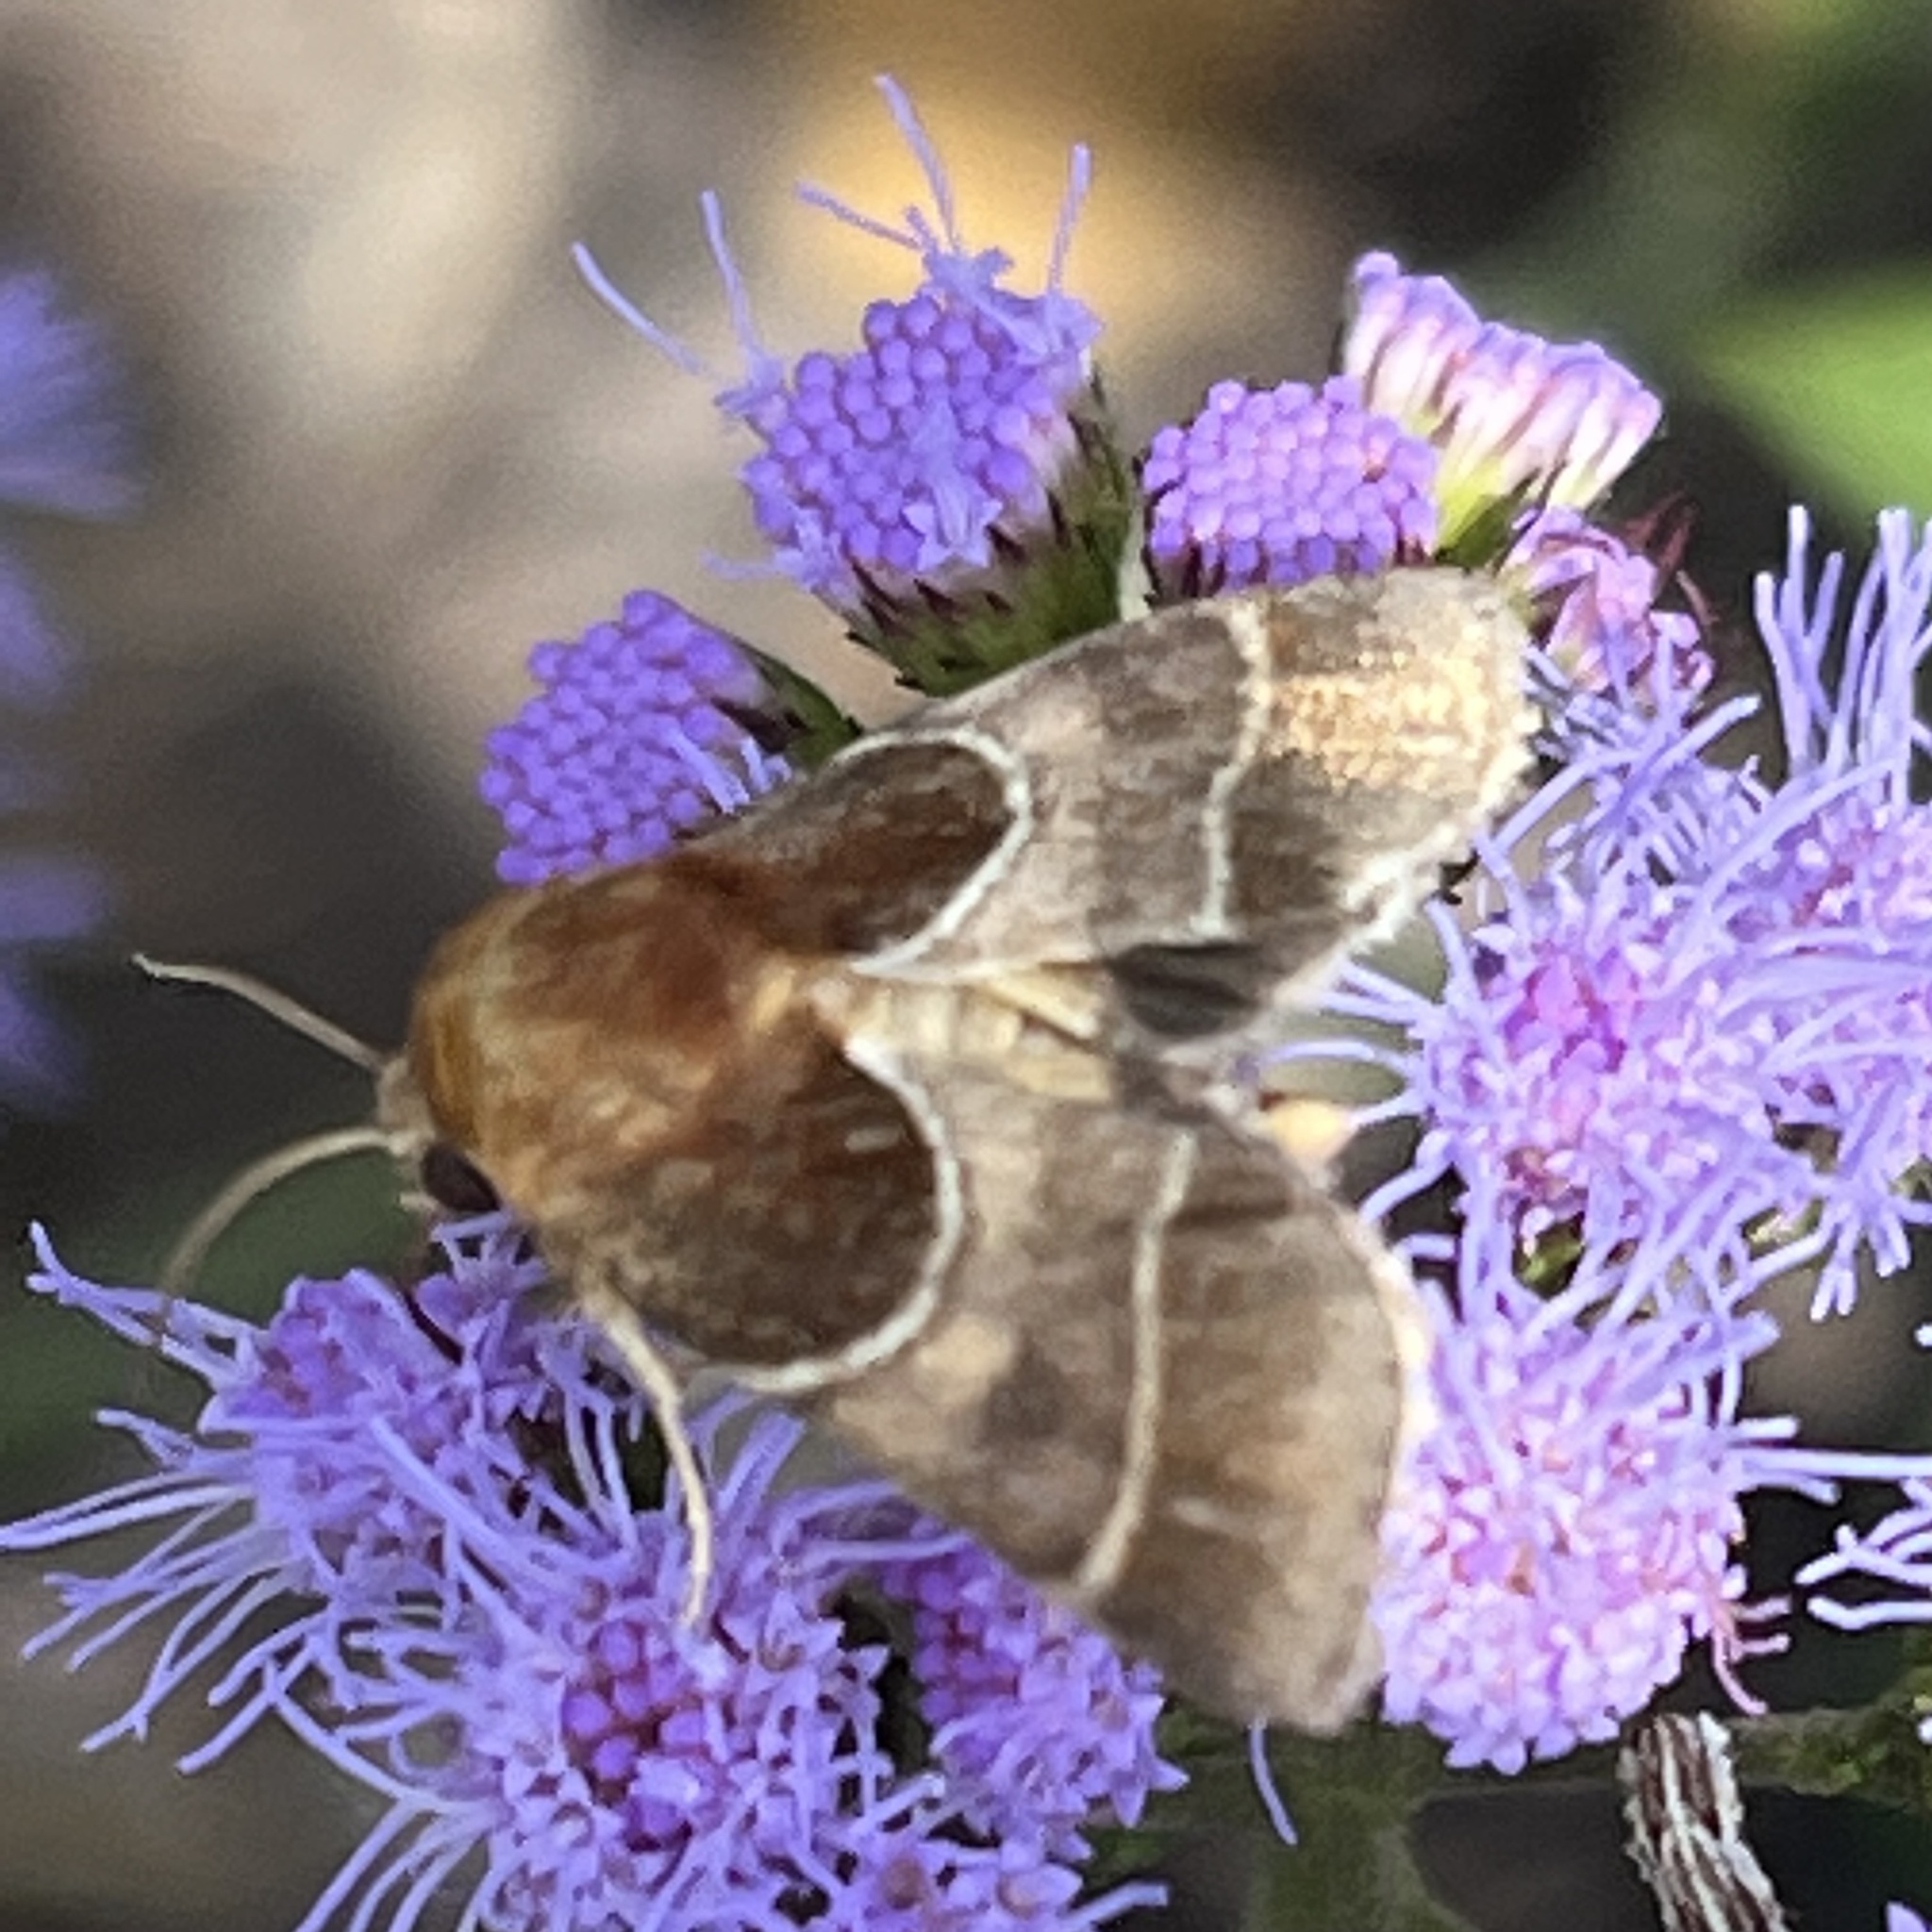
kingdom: Animalia
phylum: Arthropoda
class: Insecta
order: Lepidoptera
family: Noctuidae
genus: Schinia
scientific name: Schinia arcigera
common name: Arcigera flower moth
